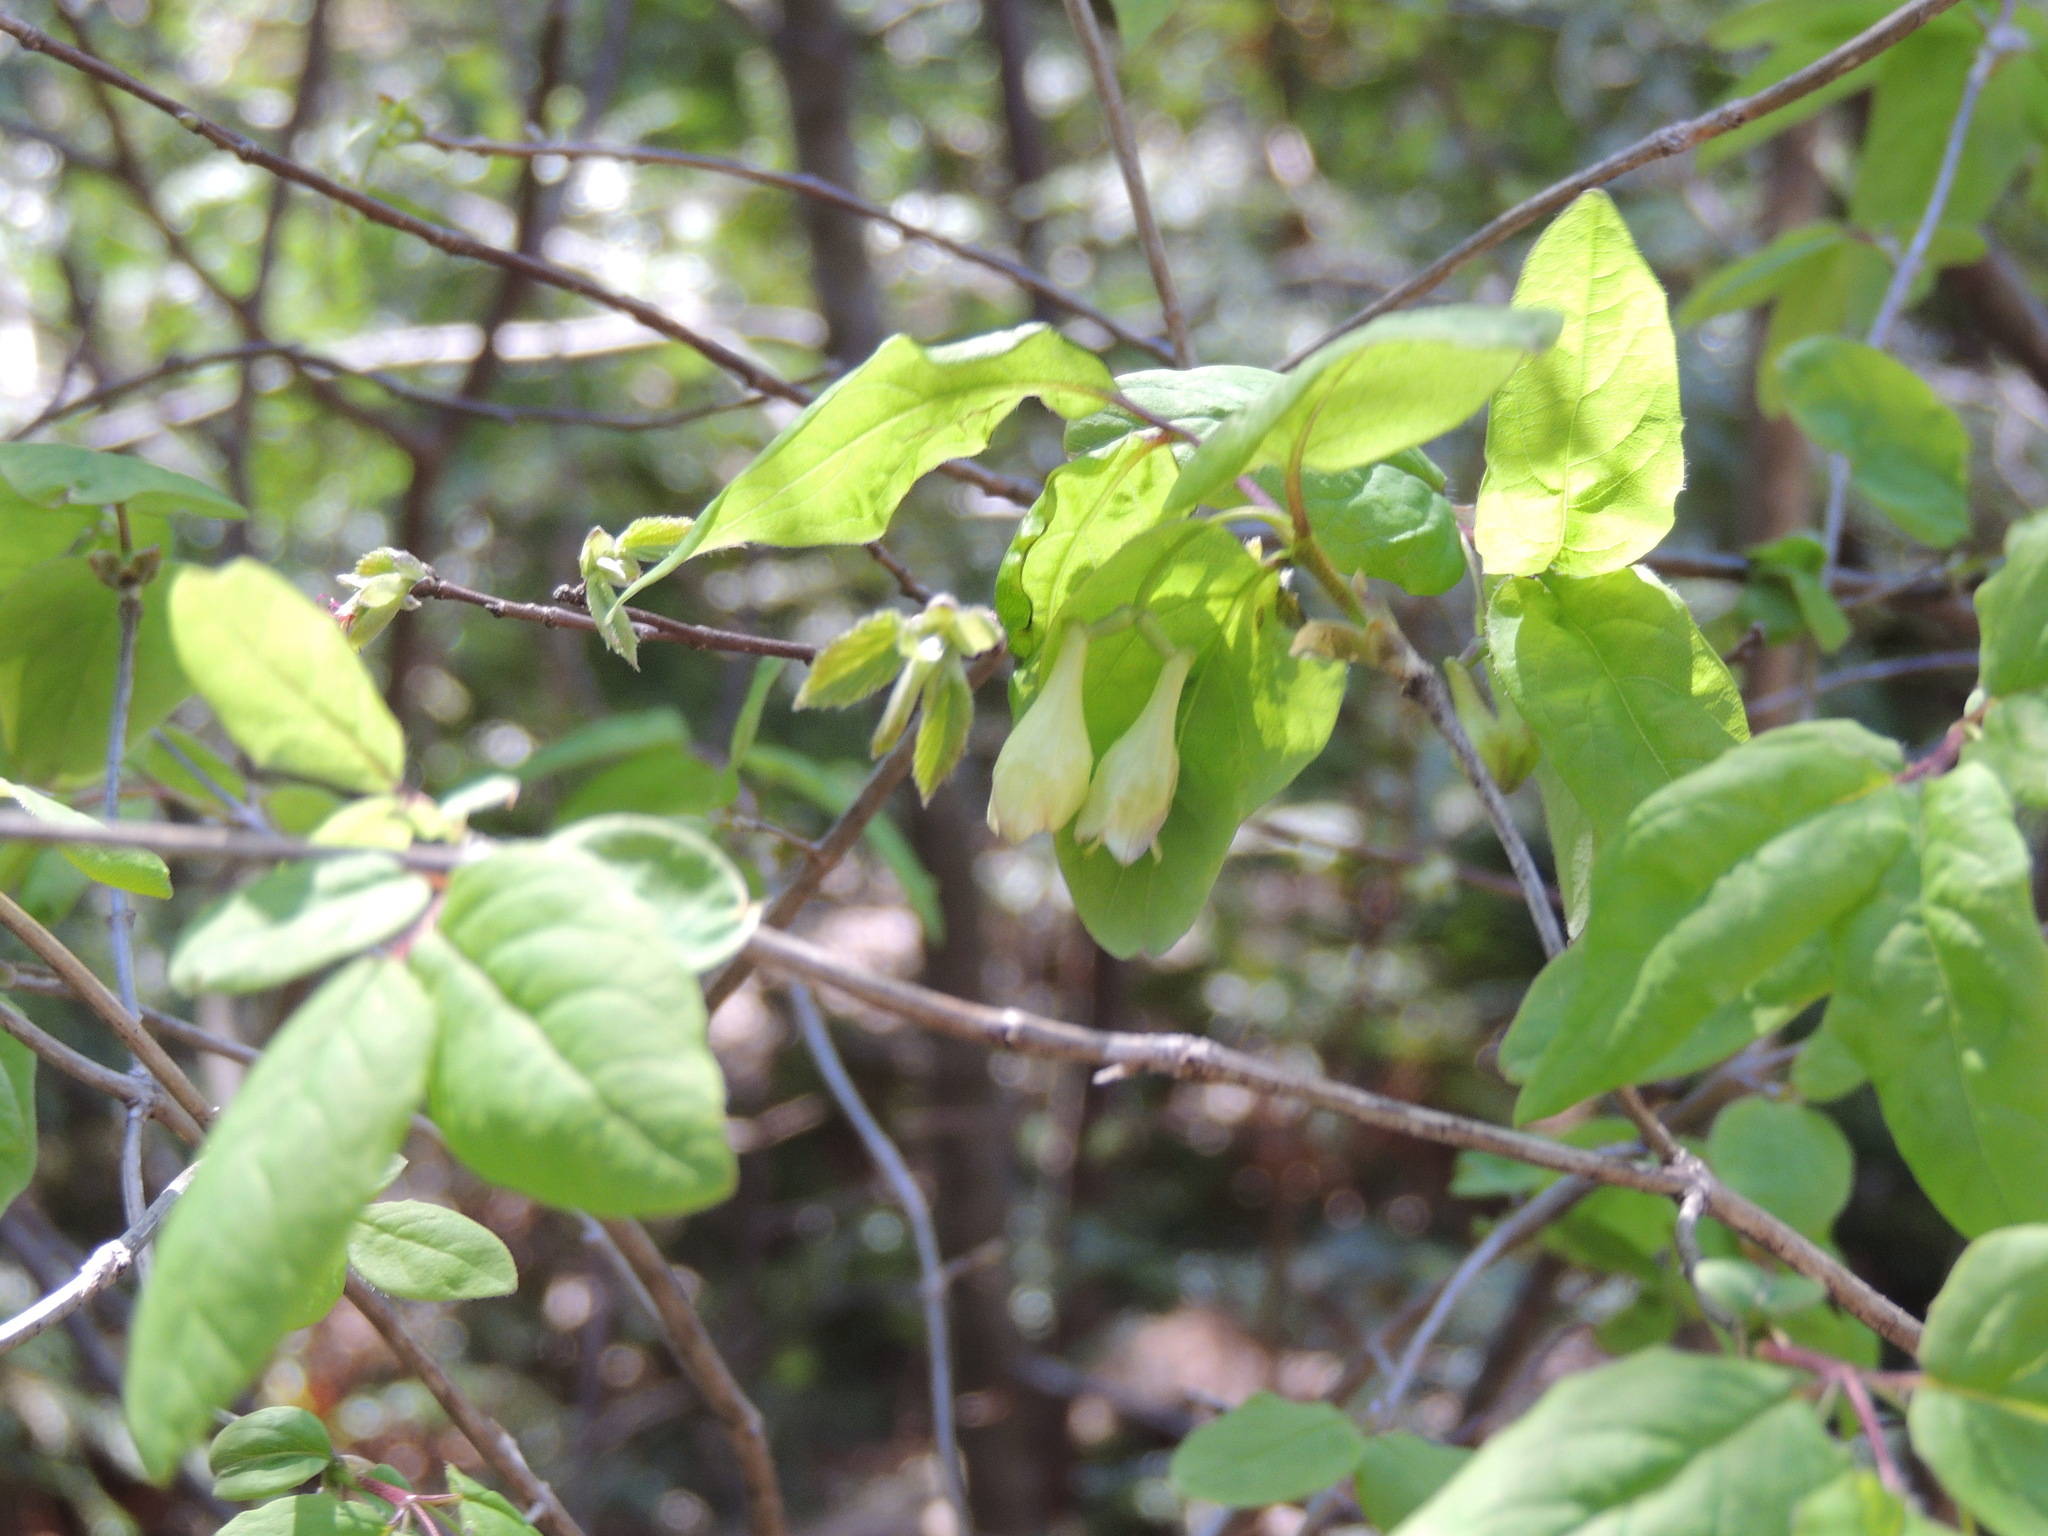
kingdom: Plantae
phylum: Tracheophyta
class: Magnoliopsida
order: Dipsacales
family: Caprifoliaceae
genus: Lonicera
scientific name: Lonicera canadensis
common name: American fly-honeysuckle
